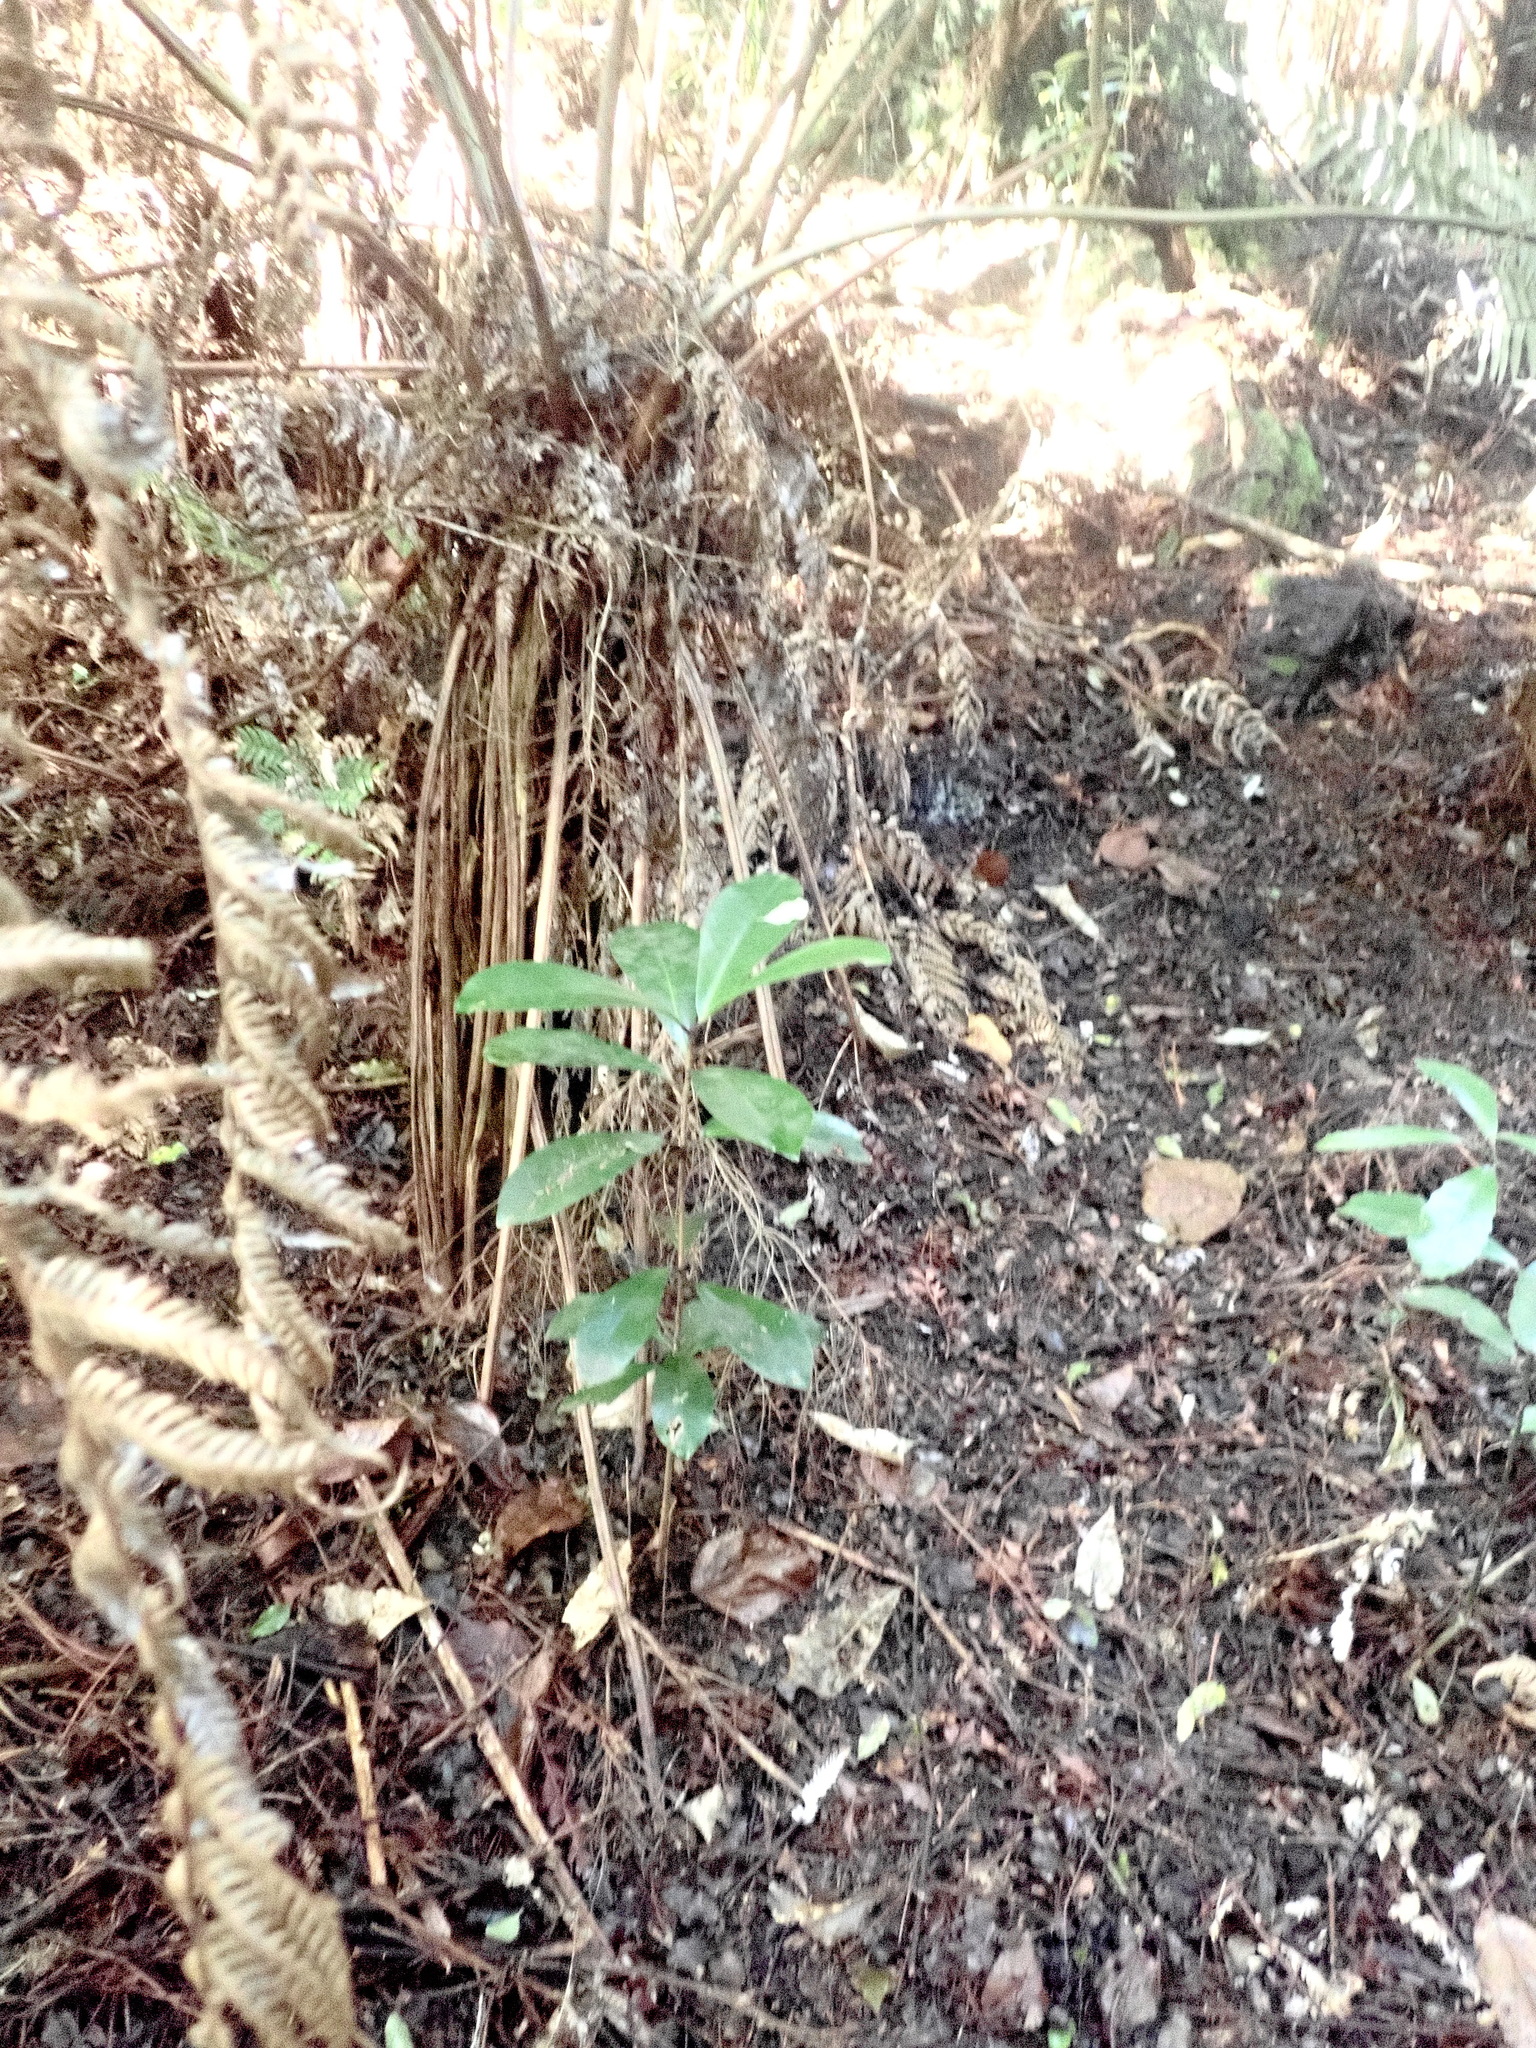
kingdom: Plantae
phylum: Tracheophyta
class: Magnoliopsida
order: Cucurbitales
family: Corynocarpaceae
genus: Corynocarpus
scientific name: Corynocarpus laevigatus
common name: New zealand laurel
